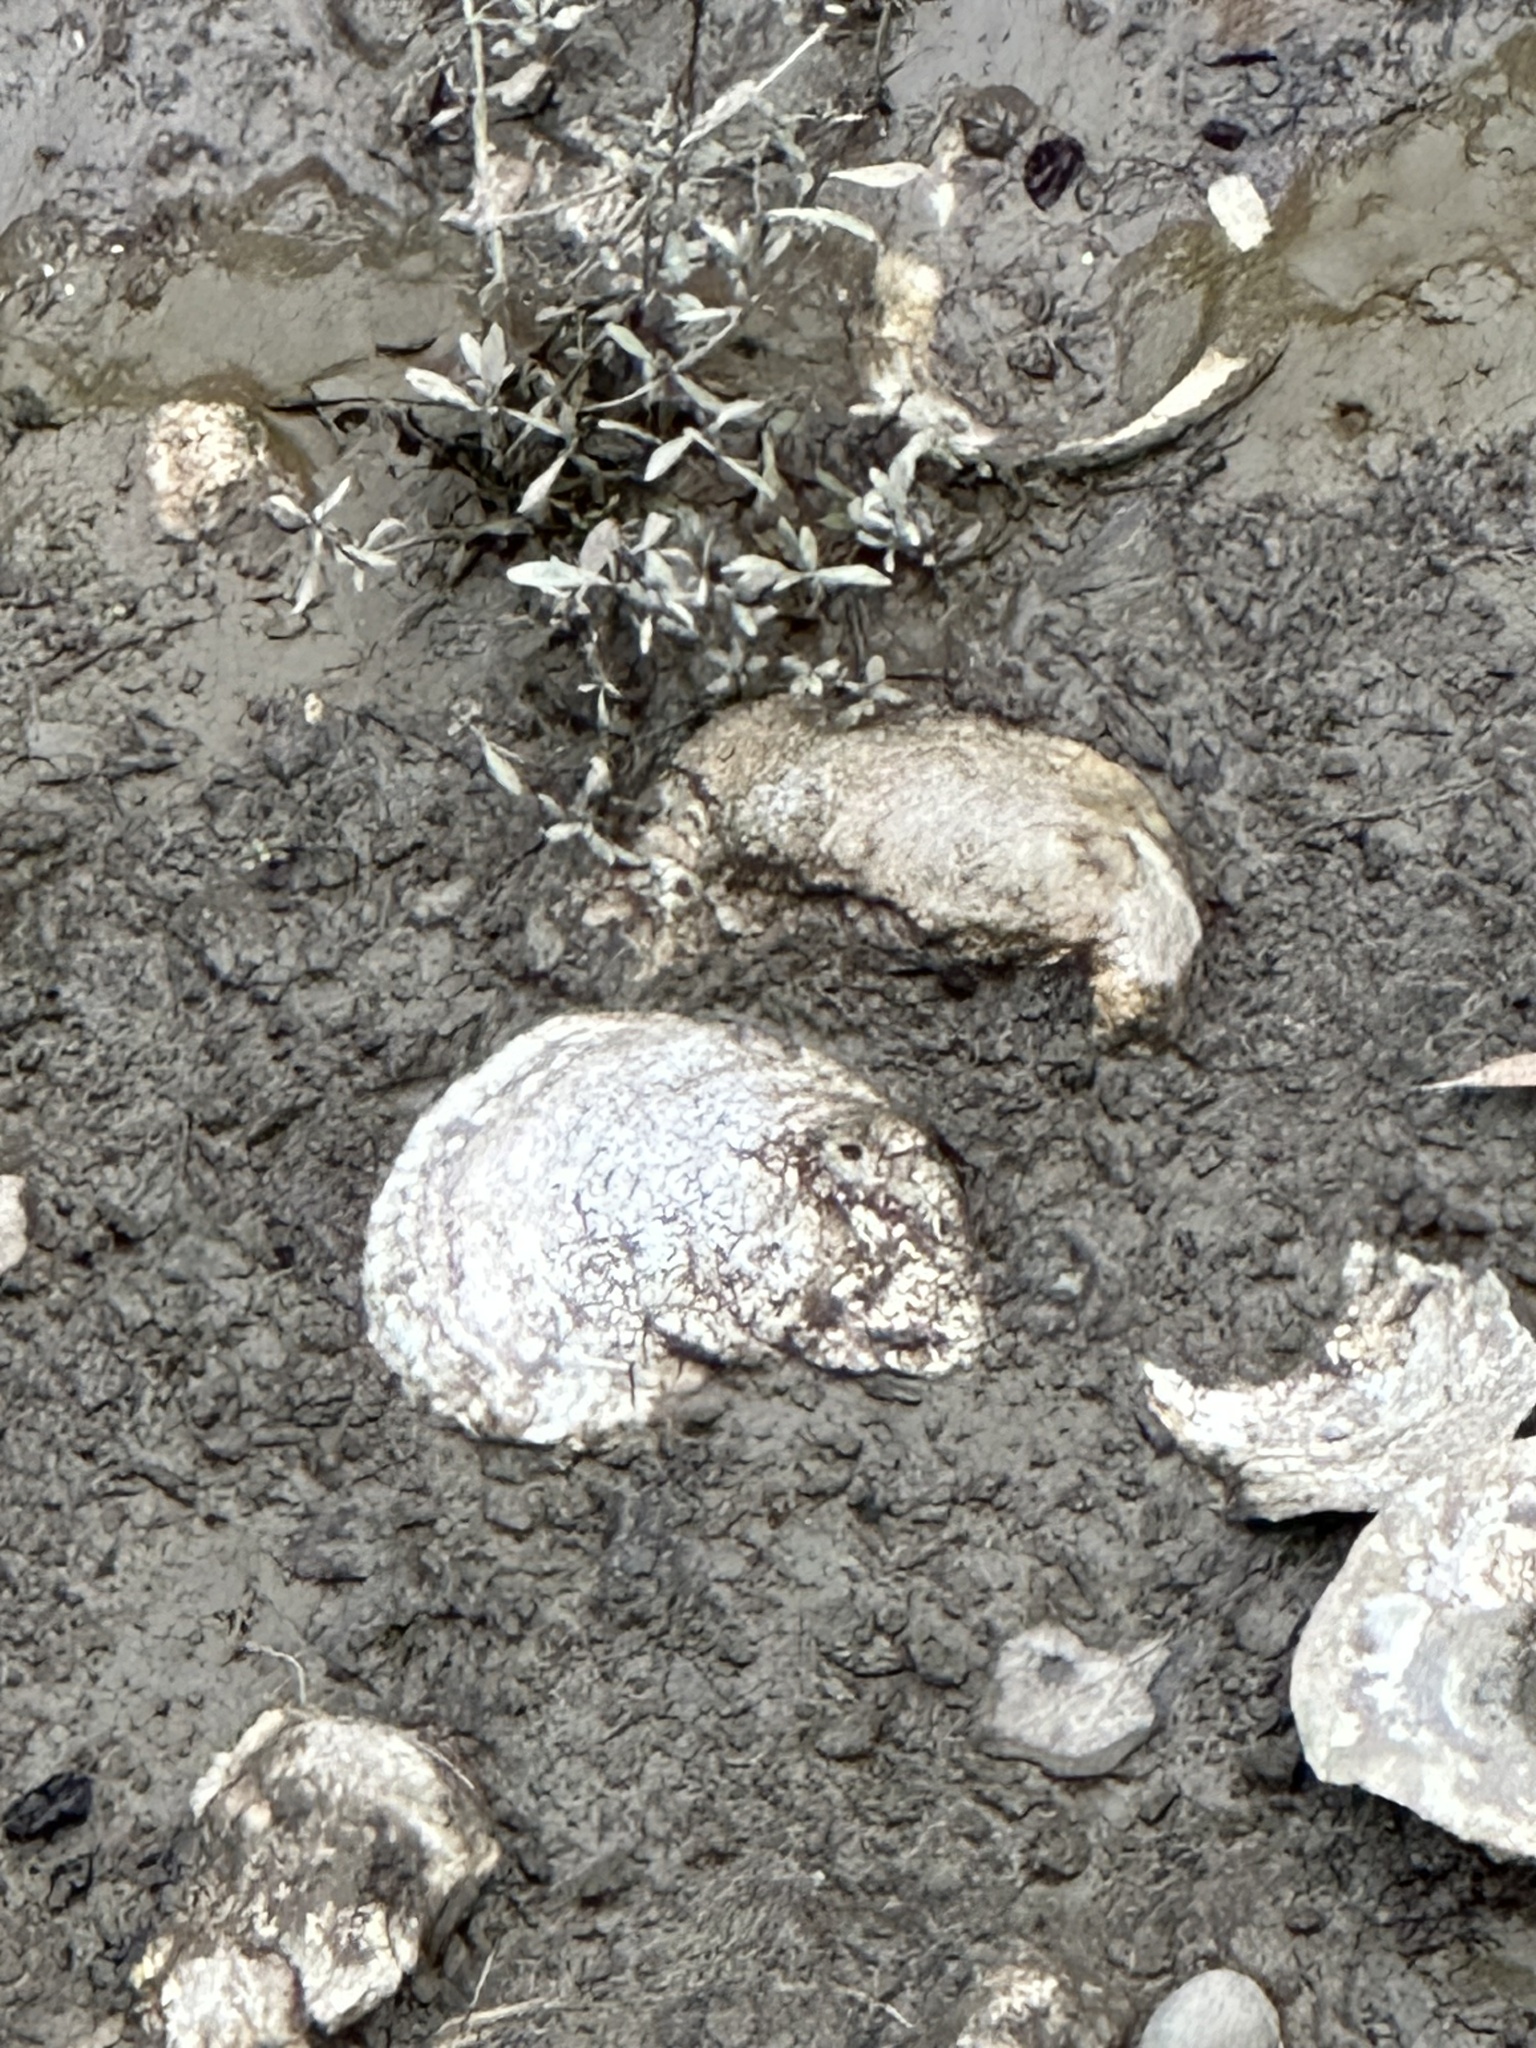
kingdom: Animalia
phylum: Mollusca
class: Bivalvia
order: Ostreida
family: Ostreidae
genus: Crassostrea
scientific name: Crassostrea virginica
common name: American oyster
